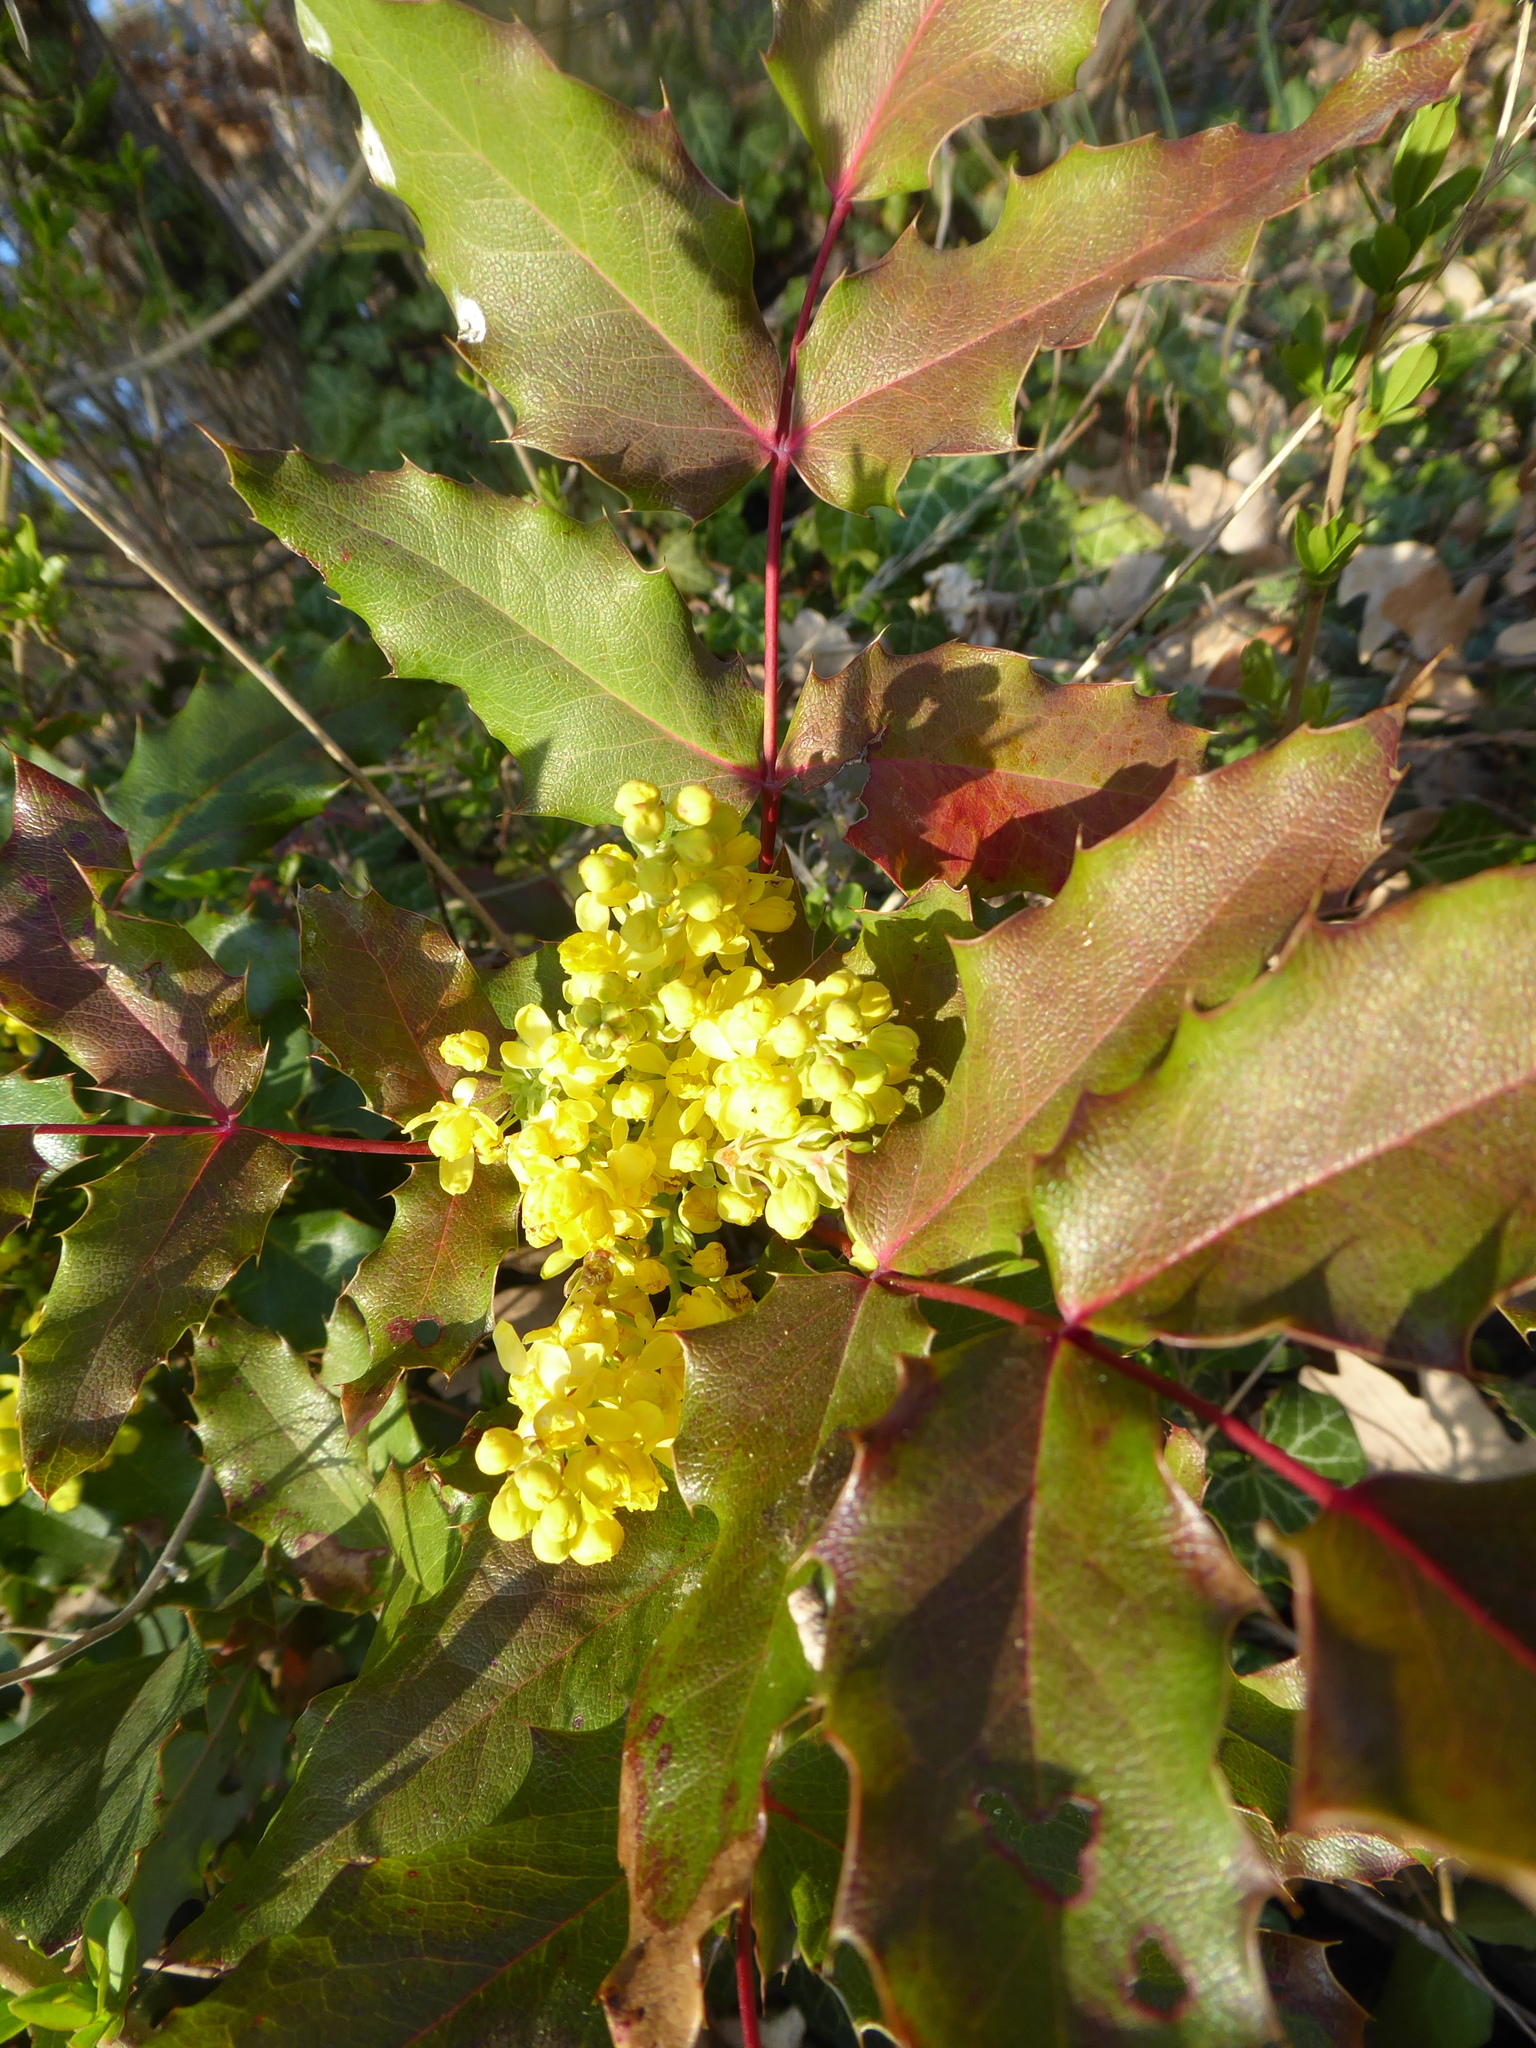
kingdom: Plantae
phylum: Tracheophyta
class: Magnoliopsida
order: Ranunculales
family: Berberidaceae
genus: Mahonia
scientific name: Mahonia aquifolium
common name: Oregon-grape
